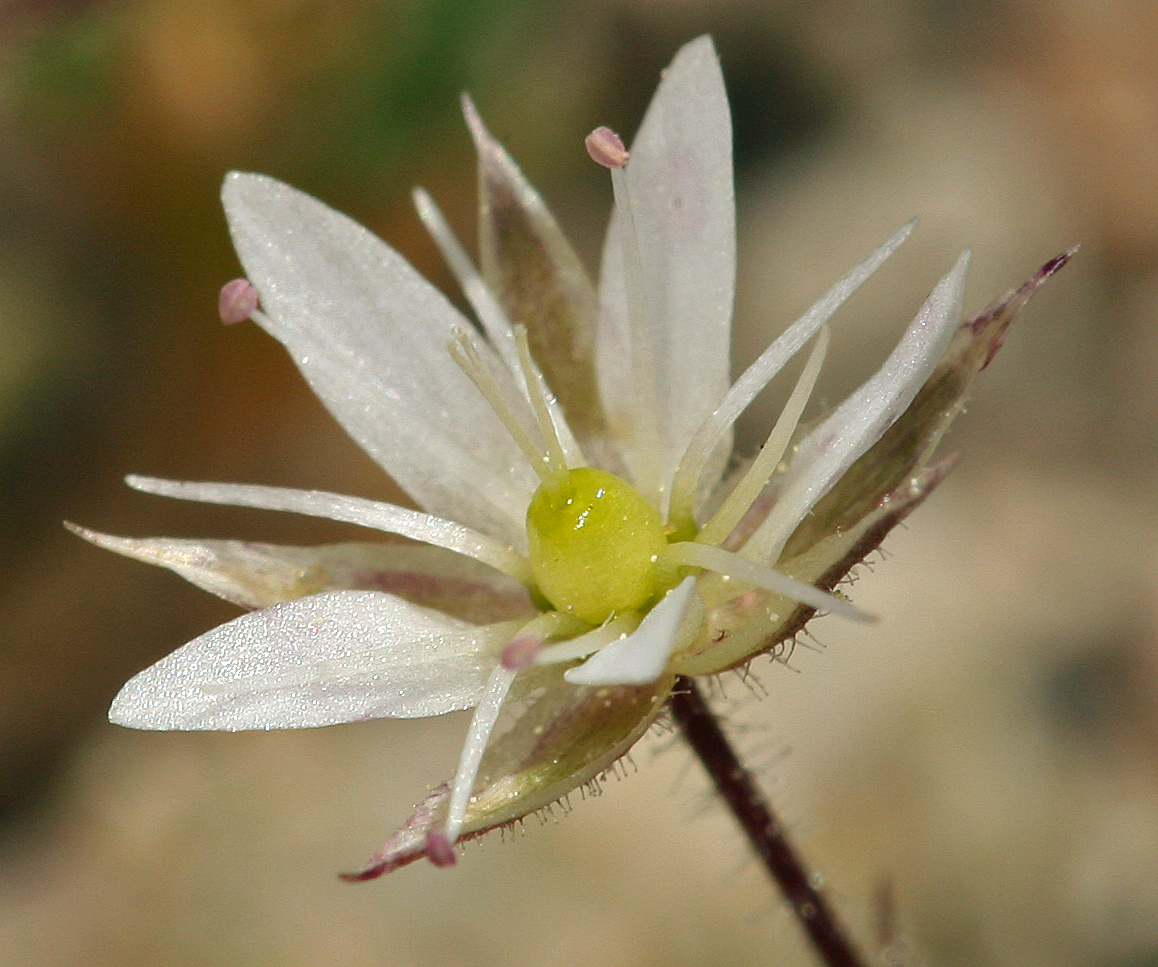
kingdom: Plantae
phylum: Tracheophyta
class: Magnoliopsida
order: Caryophyllales
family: Caryophyllaceae
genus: Sabulina
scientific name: Sabulina nuttallii
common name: Nuttall's stitchwort
